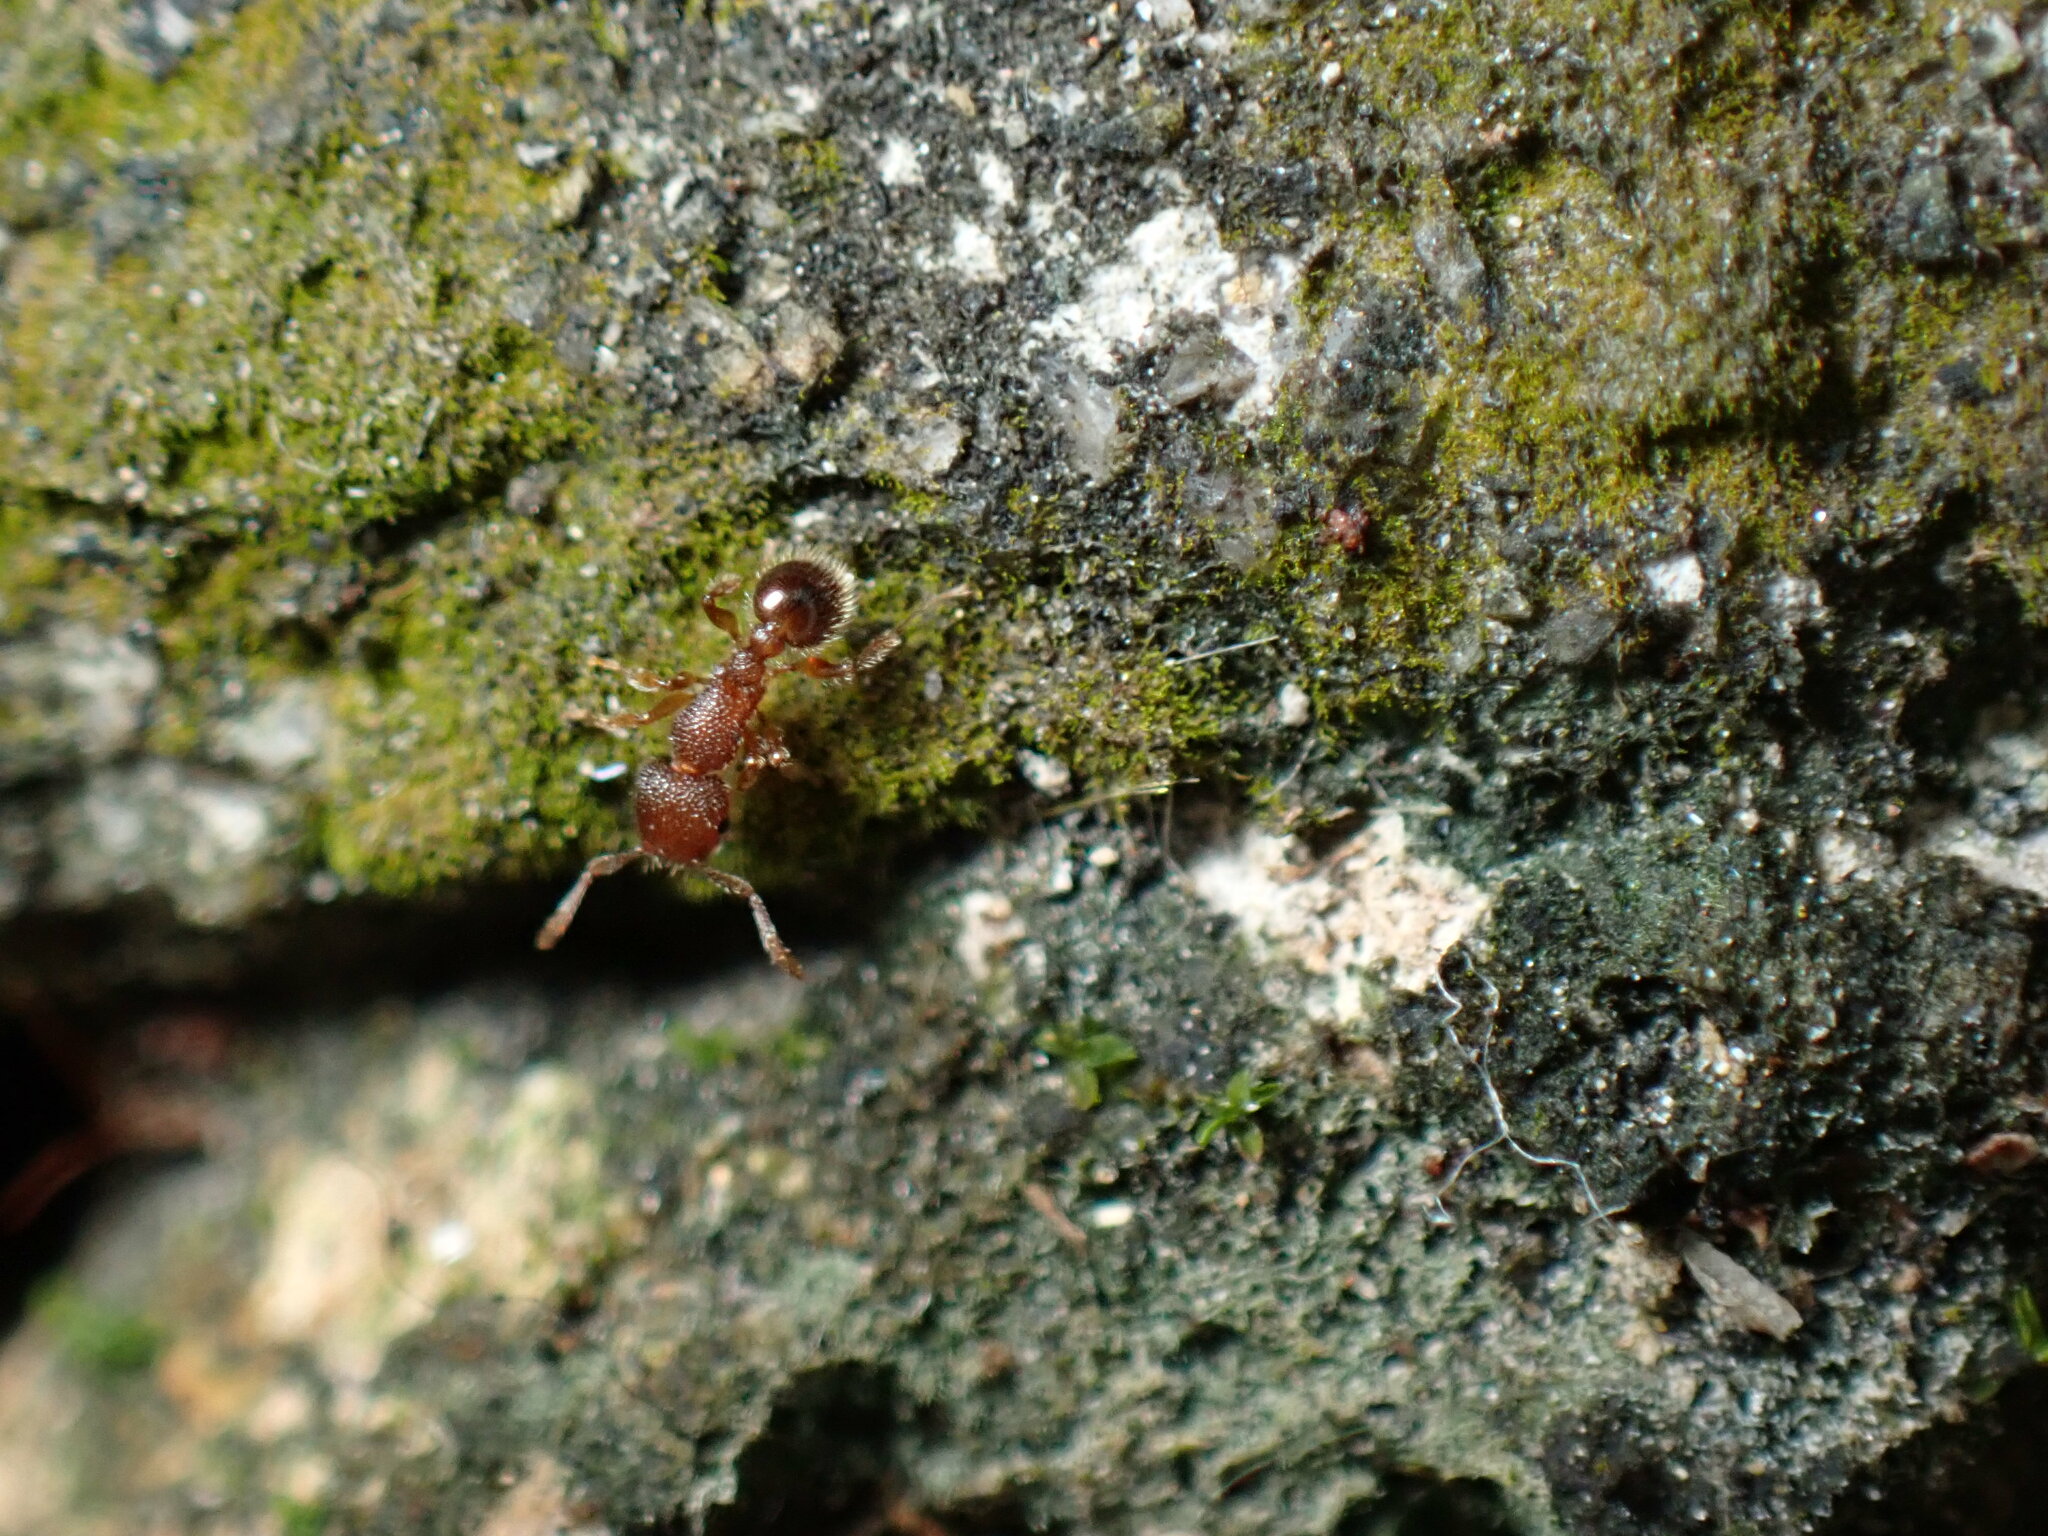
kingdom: Animalia
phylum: Arthropoda
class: Insecta
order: Hymenoptera
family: Formicidae
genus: Tetramorium
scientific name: Tetramorium bicarinatum
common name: Guinea ant
